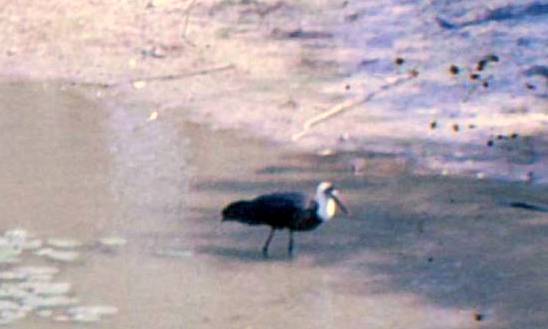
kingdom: Animalia
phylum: Chordata
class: Aves
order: Ciconiiformes
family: Ciconiidae
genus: Ciconia
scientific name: Ciconia microscelis
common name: African woollyneck
